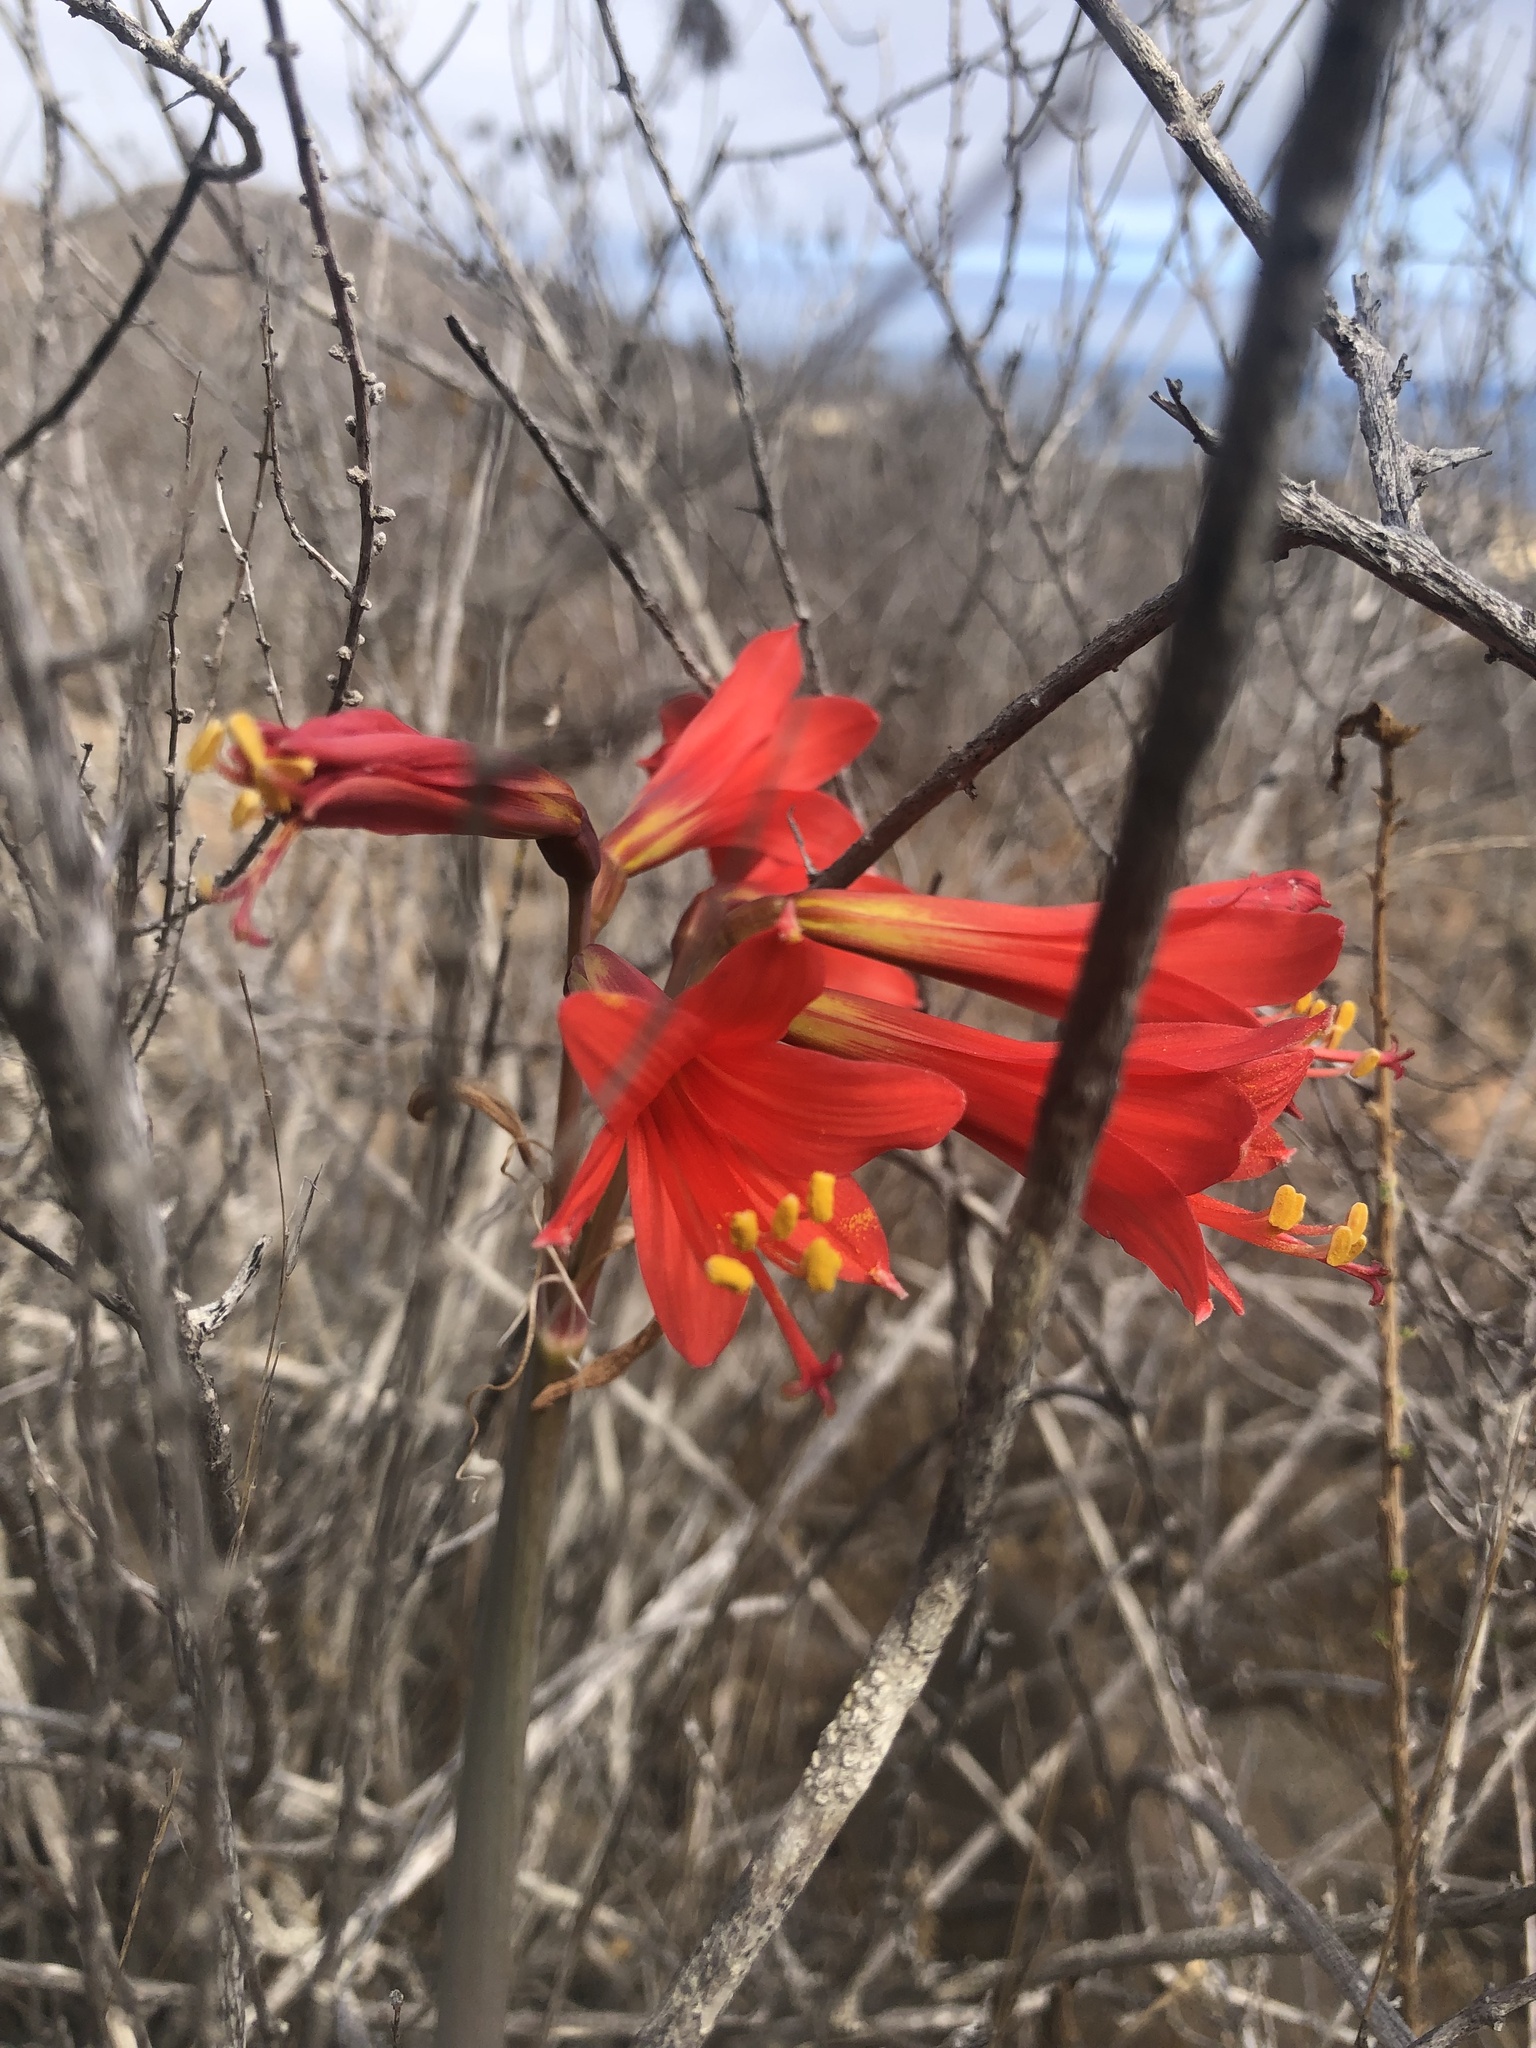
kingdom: Plantae
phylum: Tracheophyta
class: Liliopsida
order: Asparagales
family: Amaryllidaceae
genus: Zephyranthes
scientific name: Zephyranthes phycelloides
